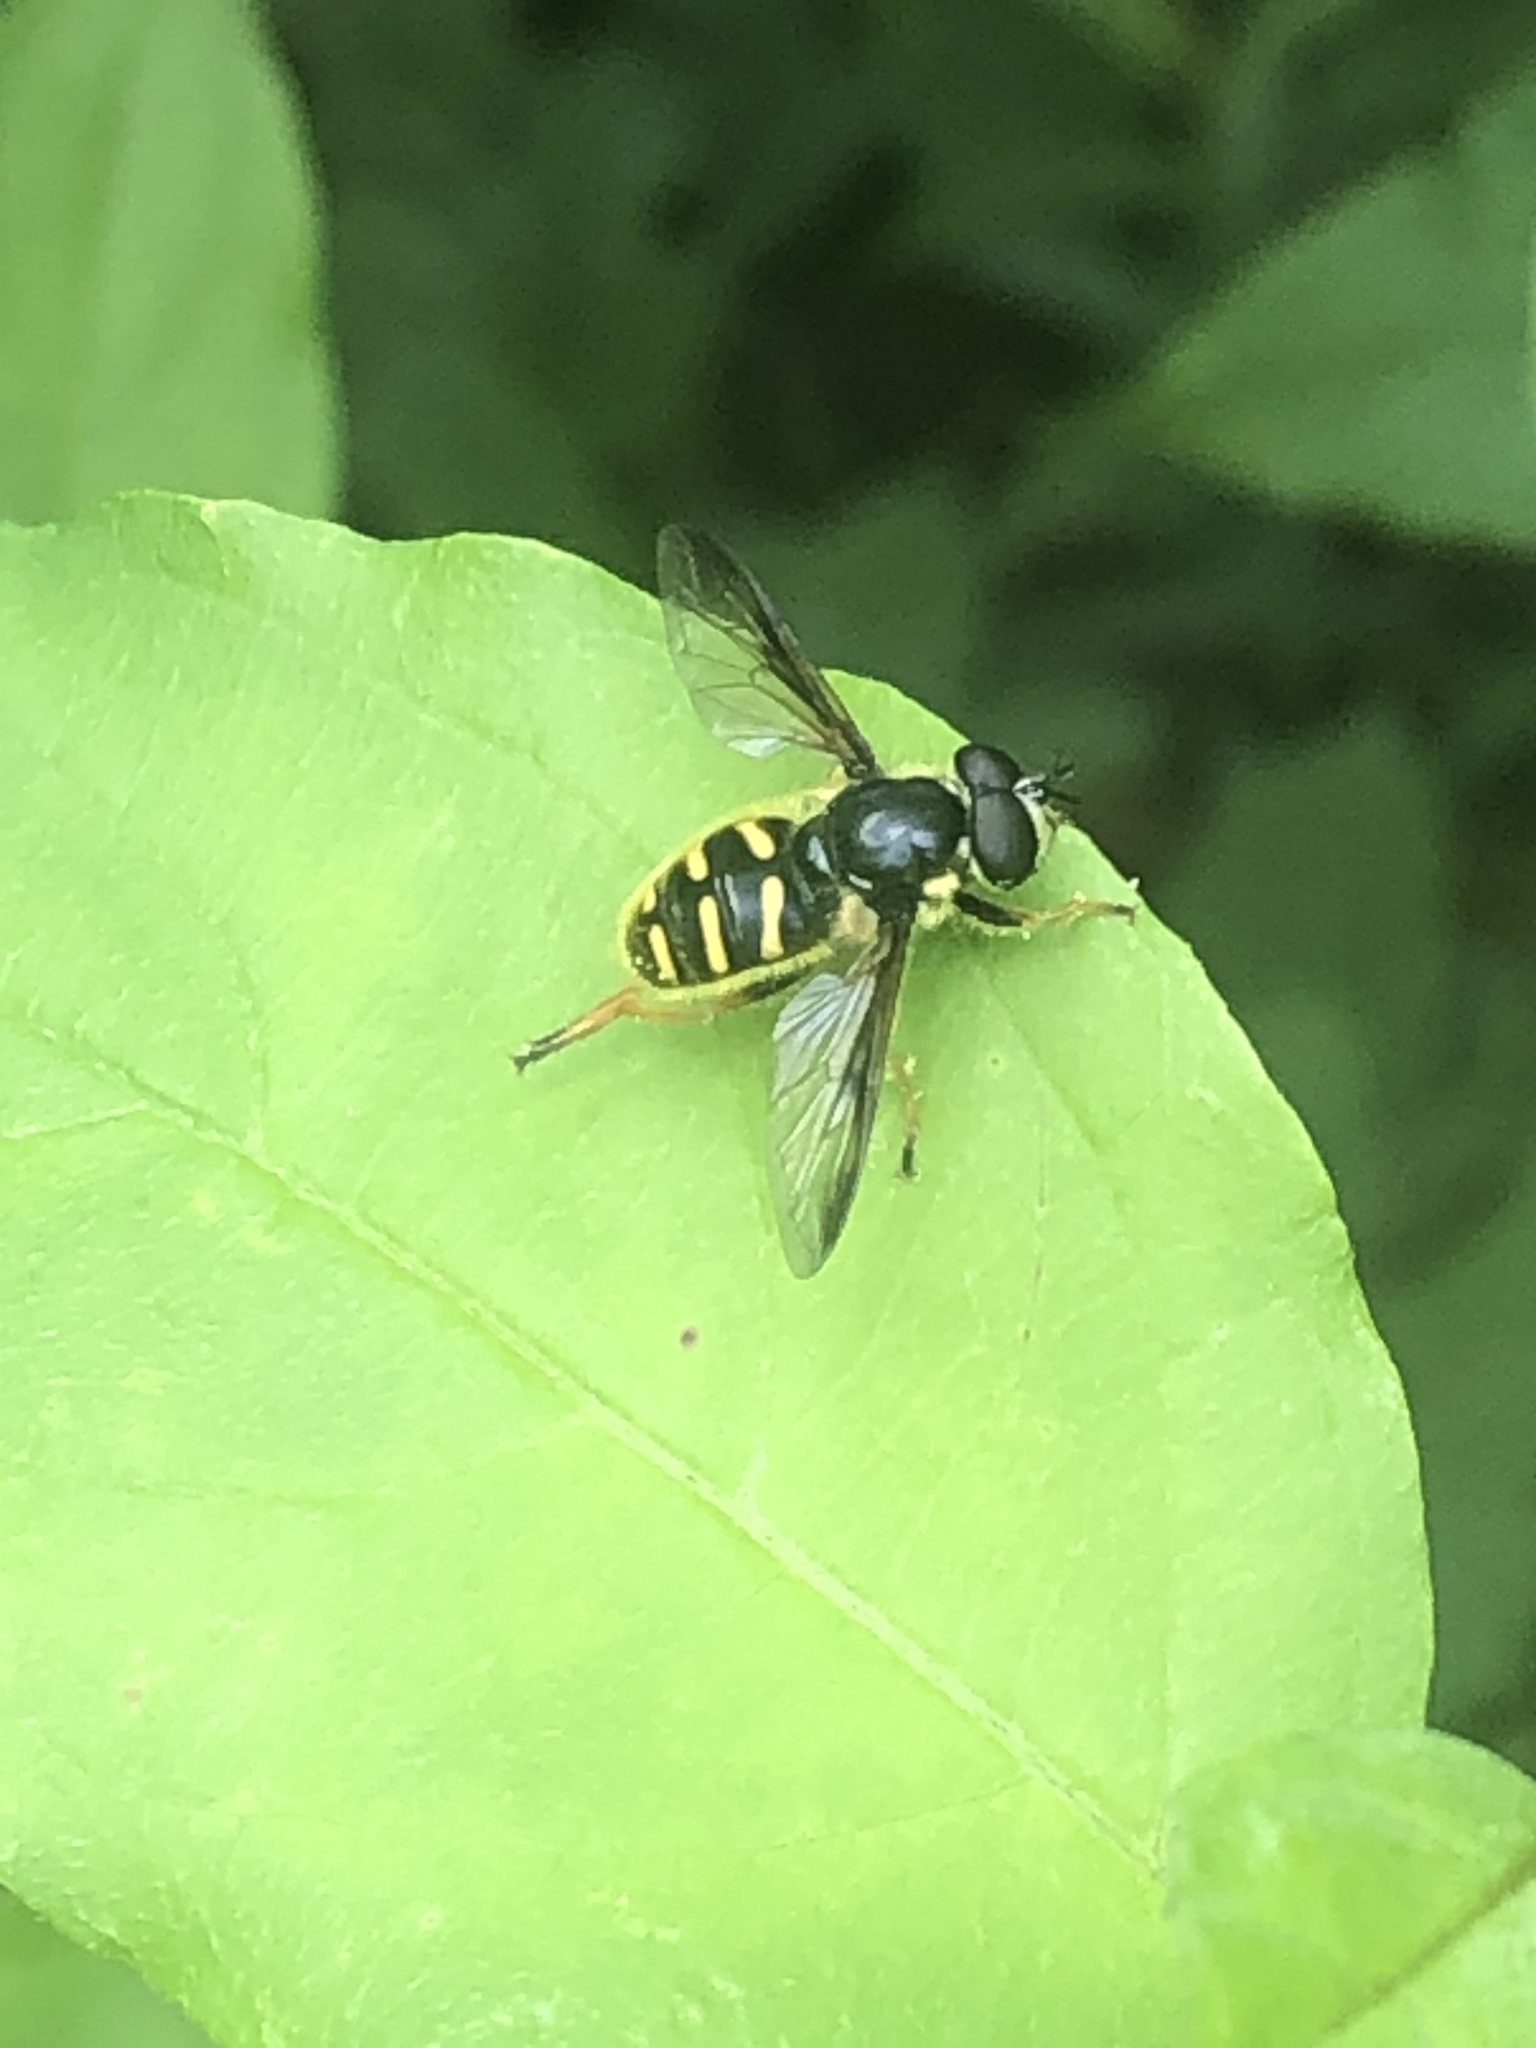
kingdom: Animalia
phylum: Arthropoda
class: Insecta
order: Diptera
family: Syrphidae
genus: Sericomyia
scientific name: Sericomyia chrysotoxoides
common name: Oblique-banded pond fly
